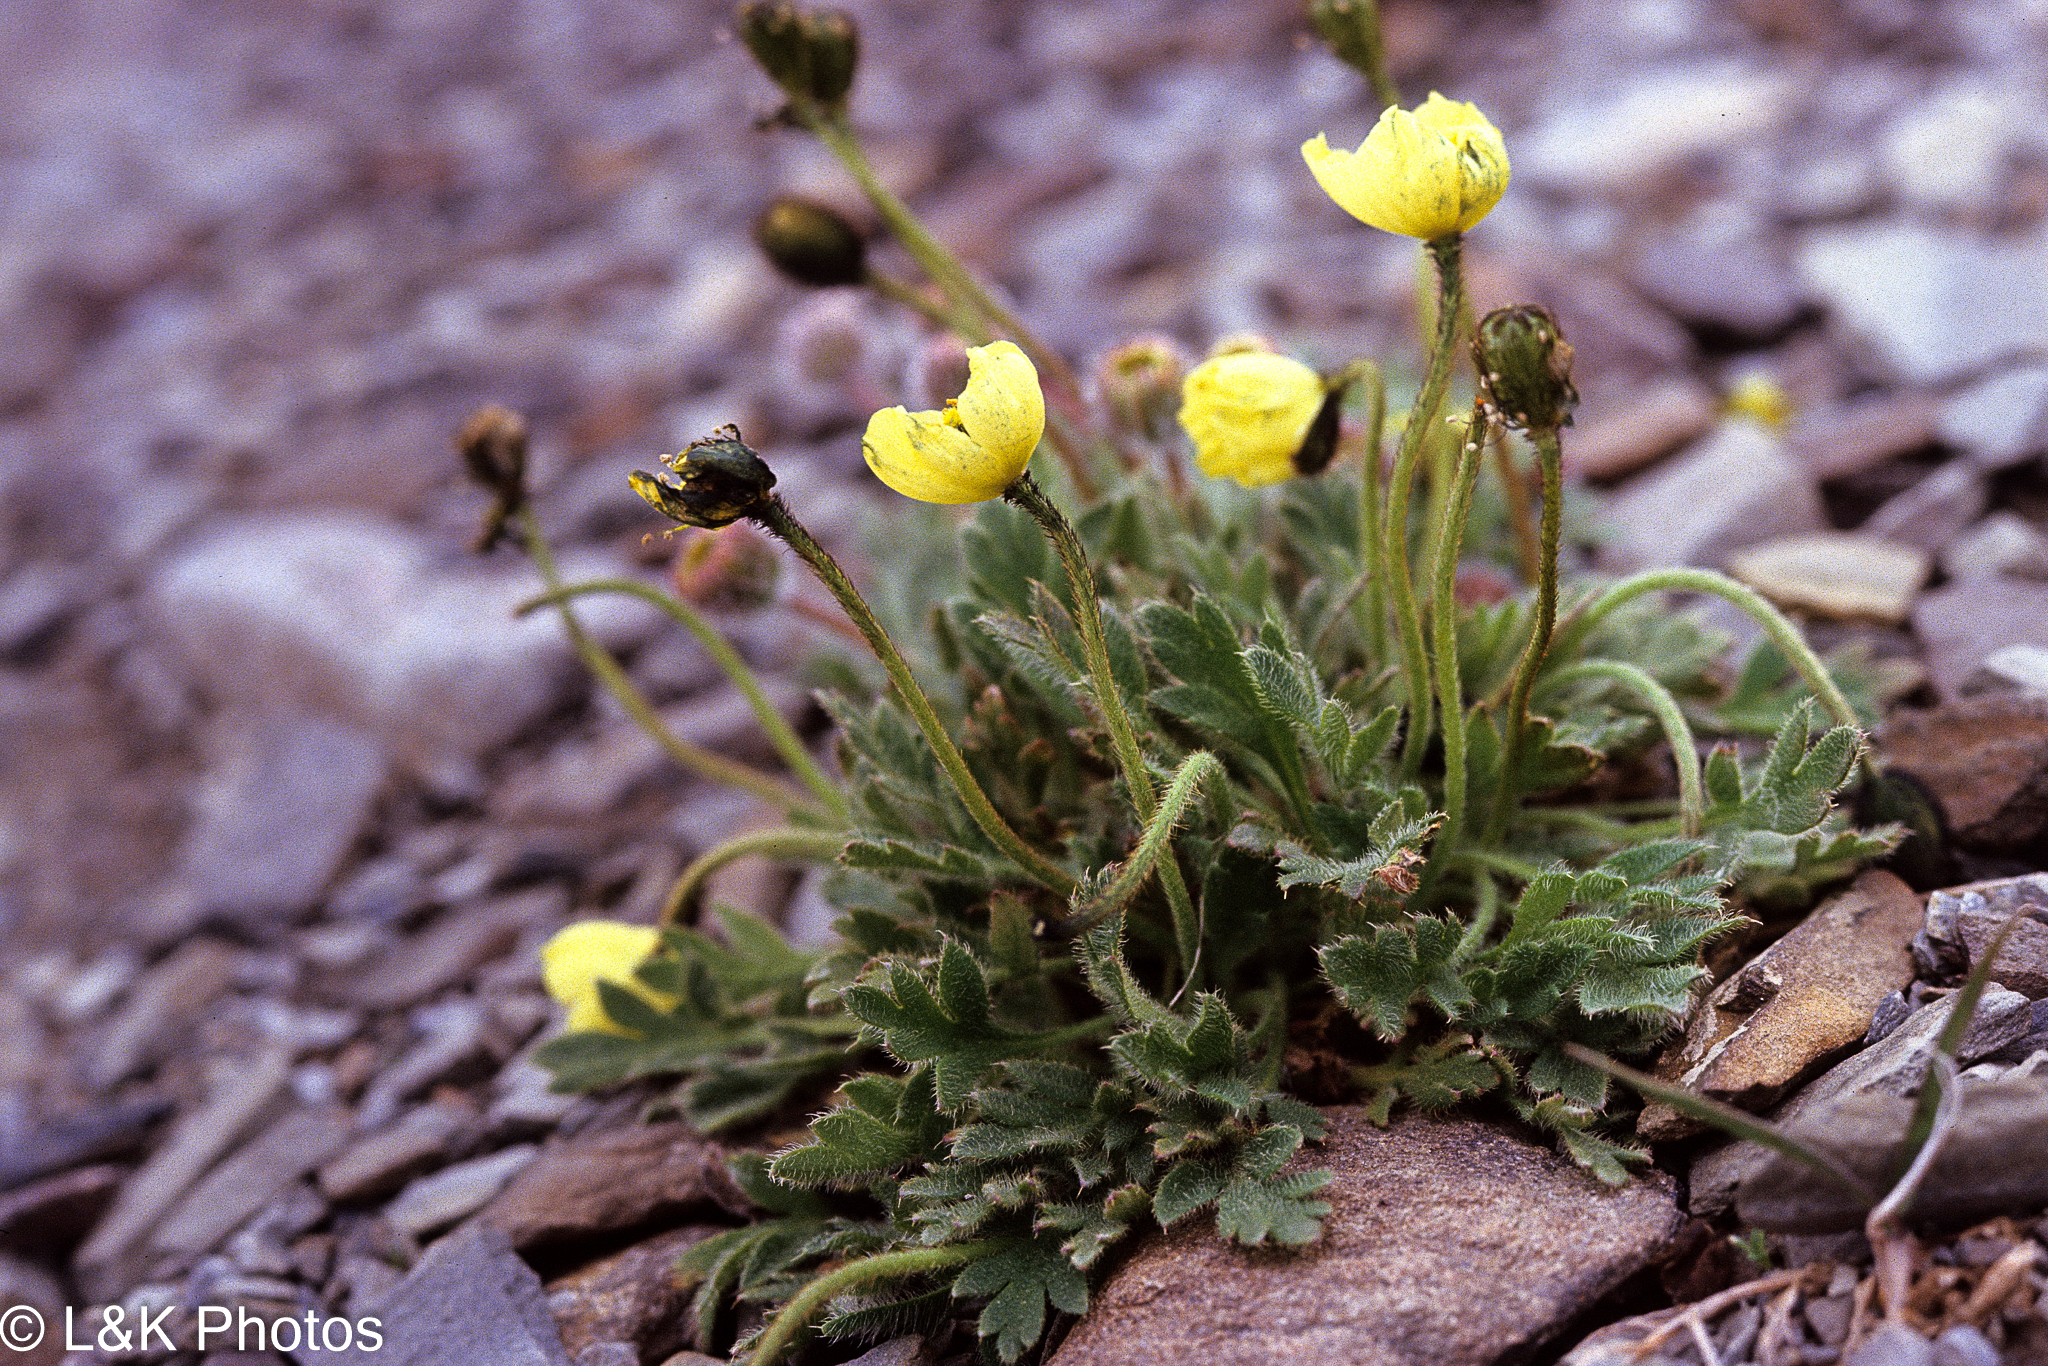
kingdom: Plantae
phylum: Tracheophyta
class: Magnoliopsida
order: Ranunculales
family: Papaveraceae
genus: Papaver
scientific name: Papaver radicatum
